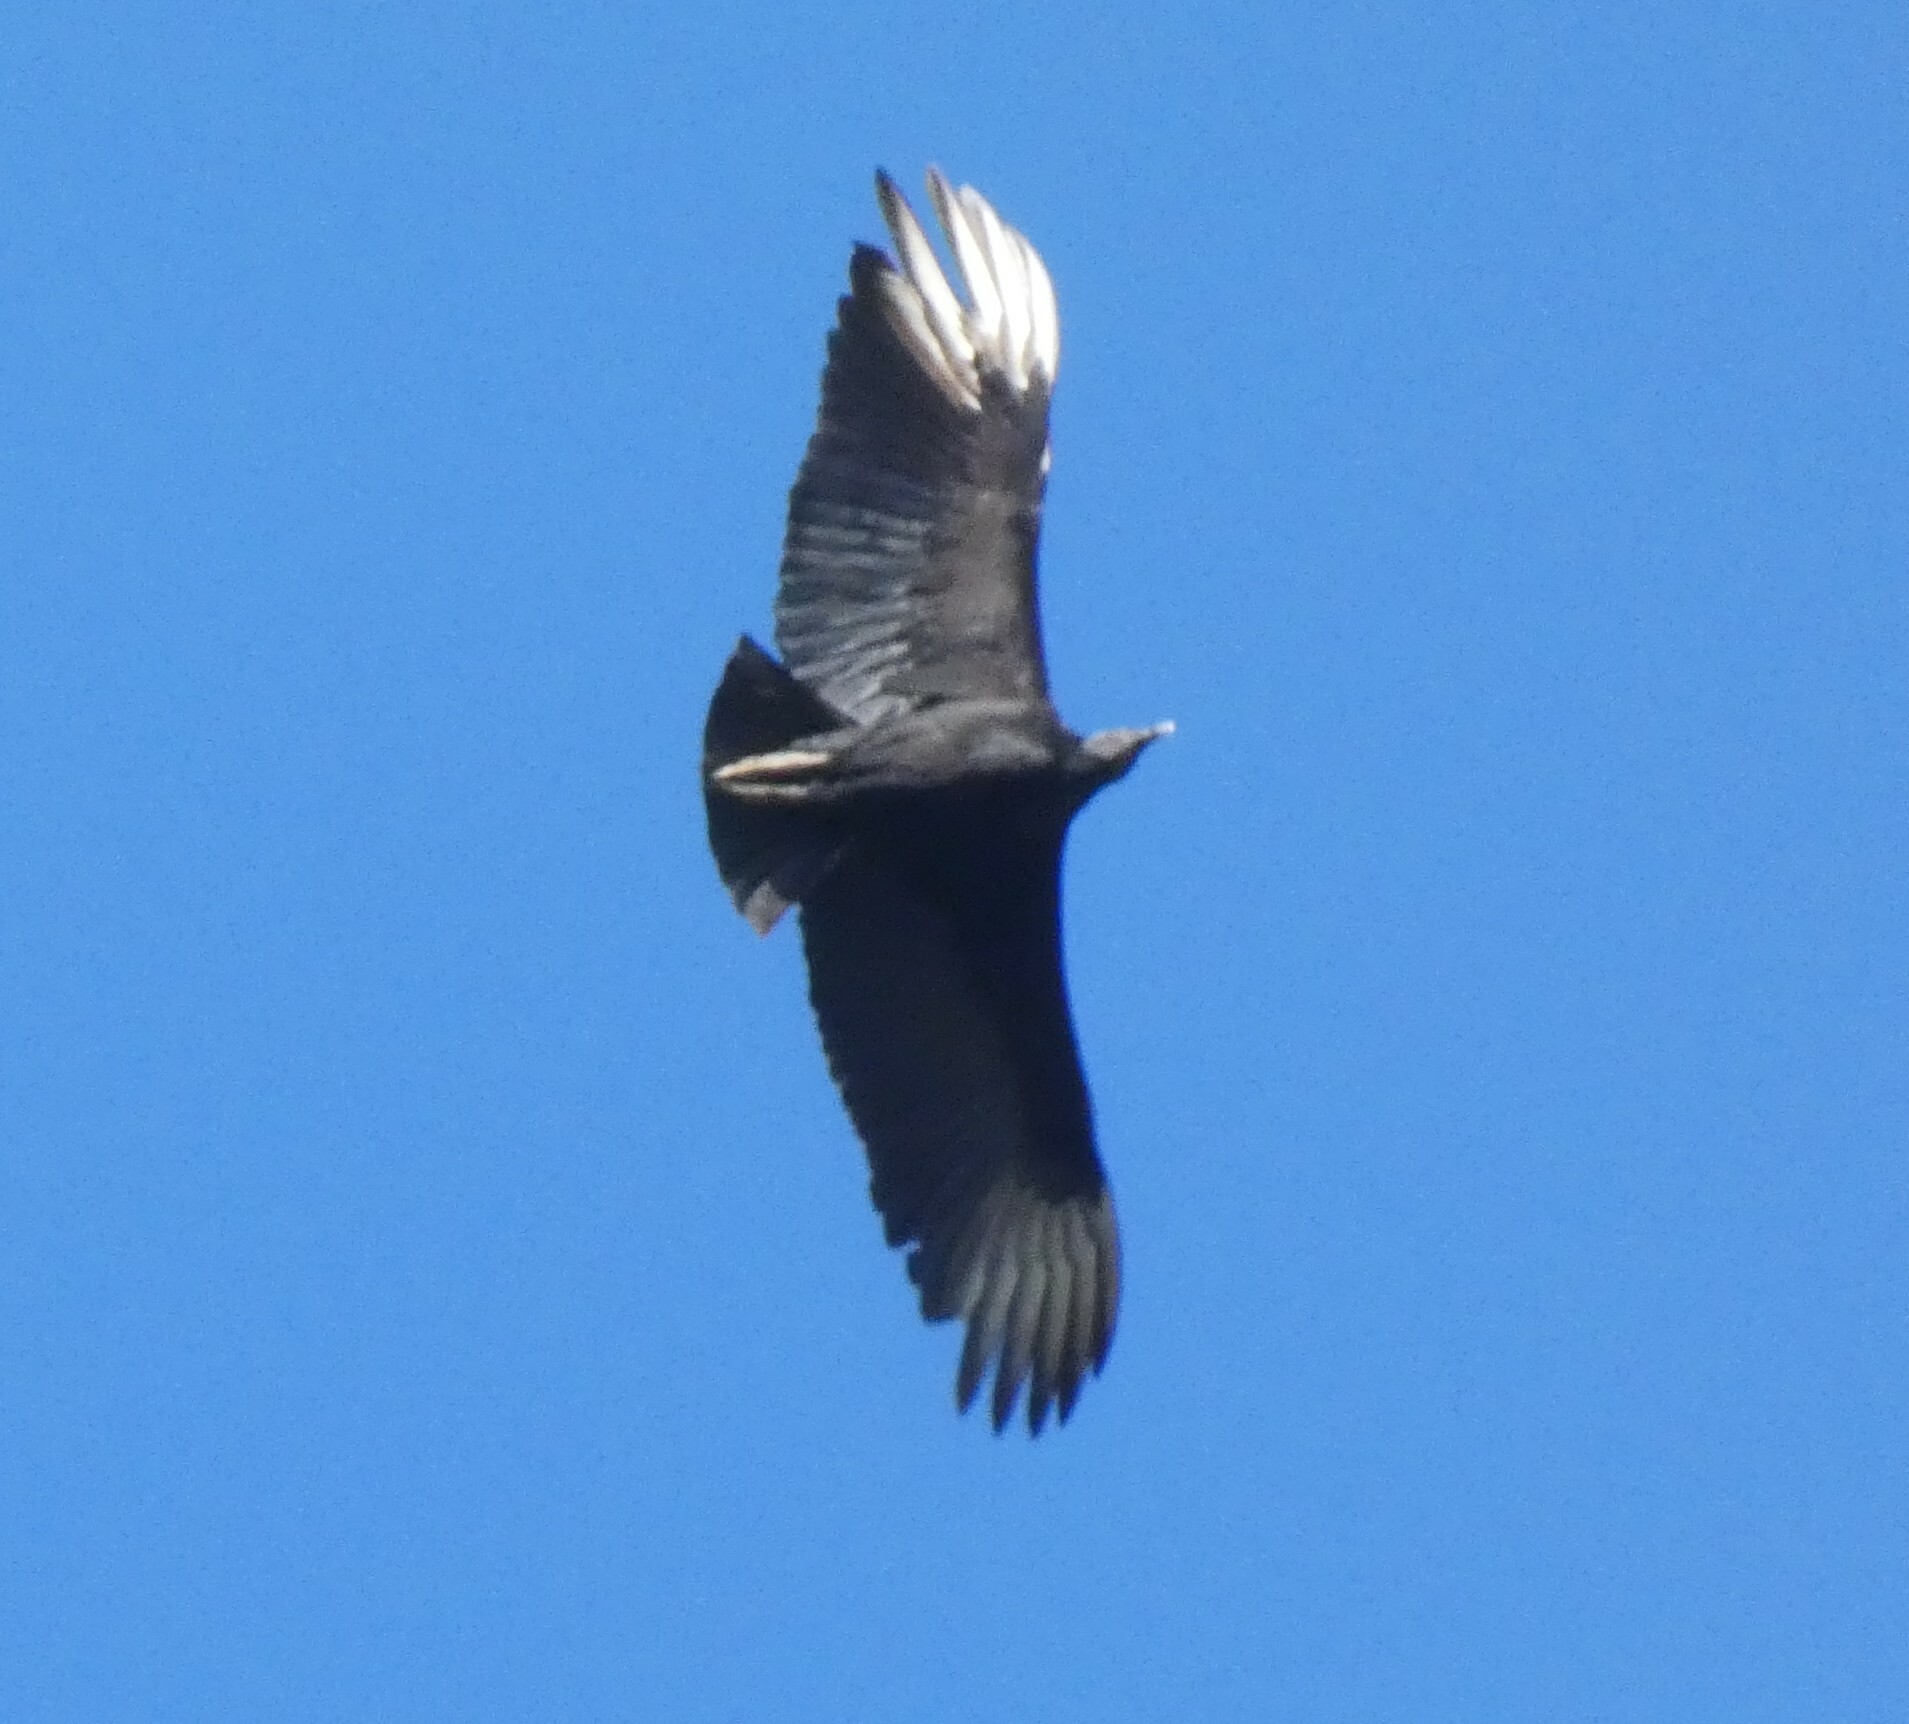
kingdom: Animalia
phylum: Chordata
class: Aves
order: Accipitriformes
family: Cathartidae
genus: Coragyps
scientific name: Coragyps atratus
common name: Black vulture
